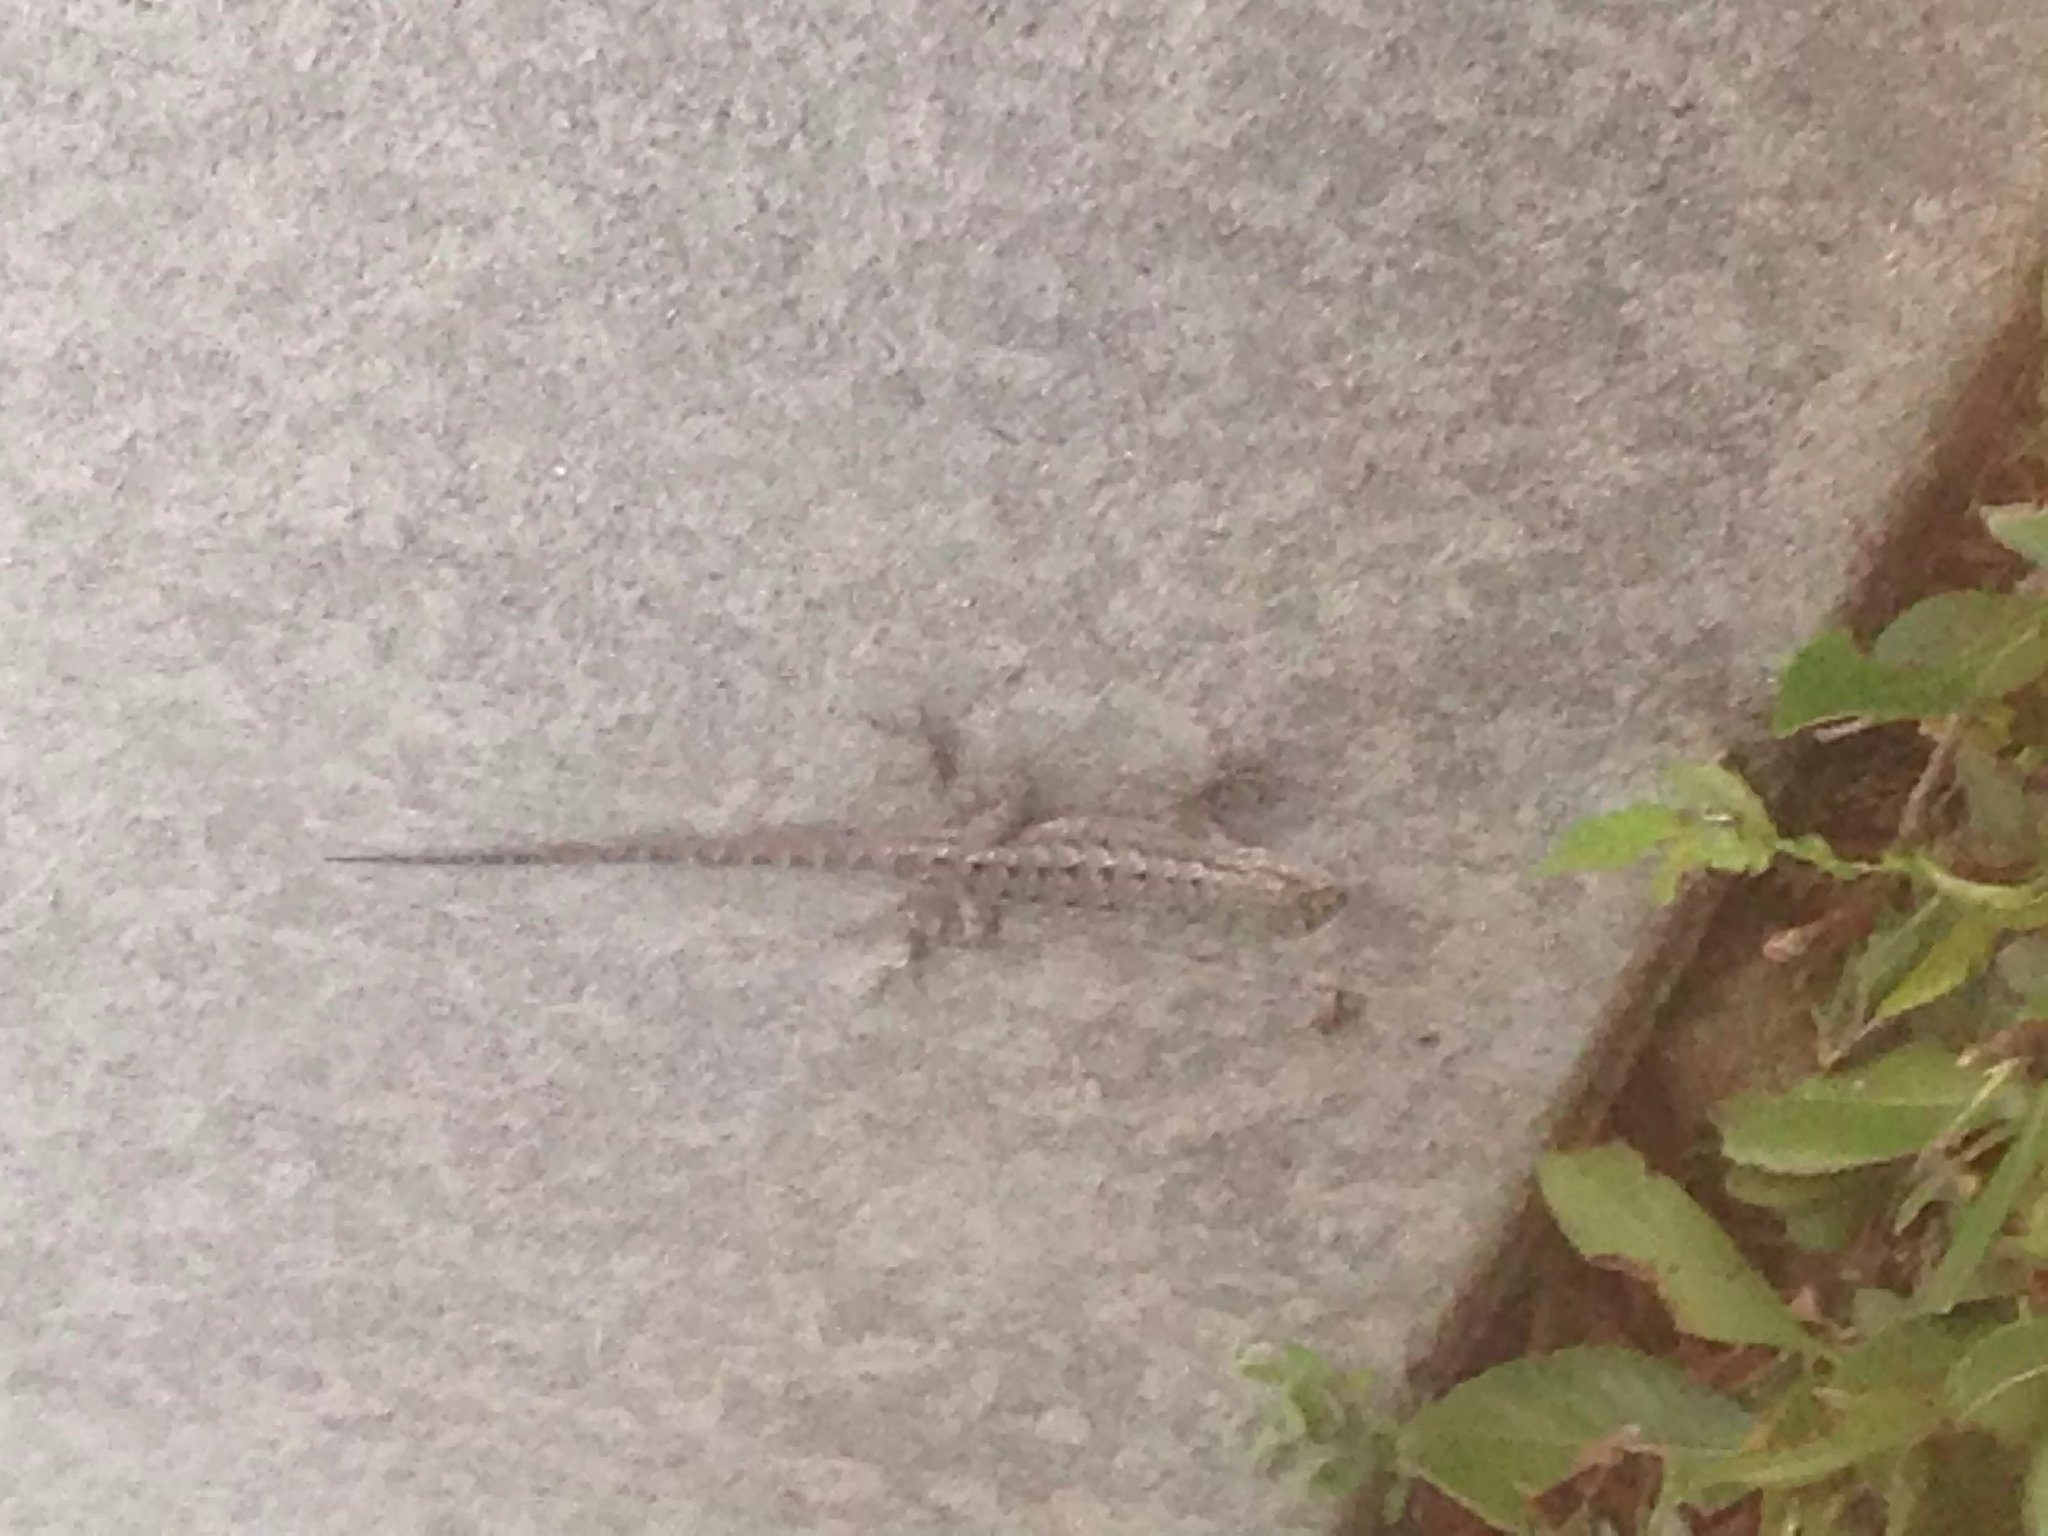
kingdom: Animalia
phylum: Chordata
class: Squamata
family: Phrynosomatidae
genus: Sceloporus
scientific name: Sceloporus occidentalis
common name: Western fence lizard
